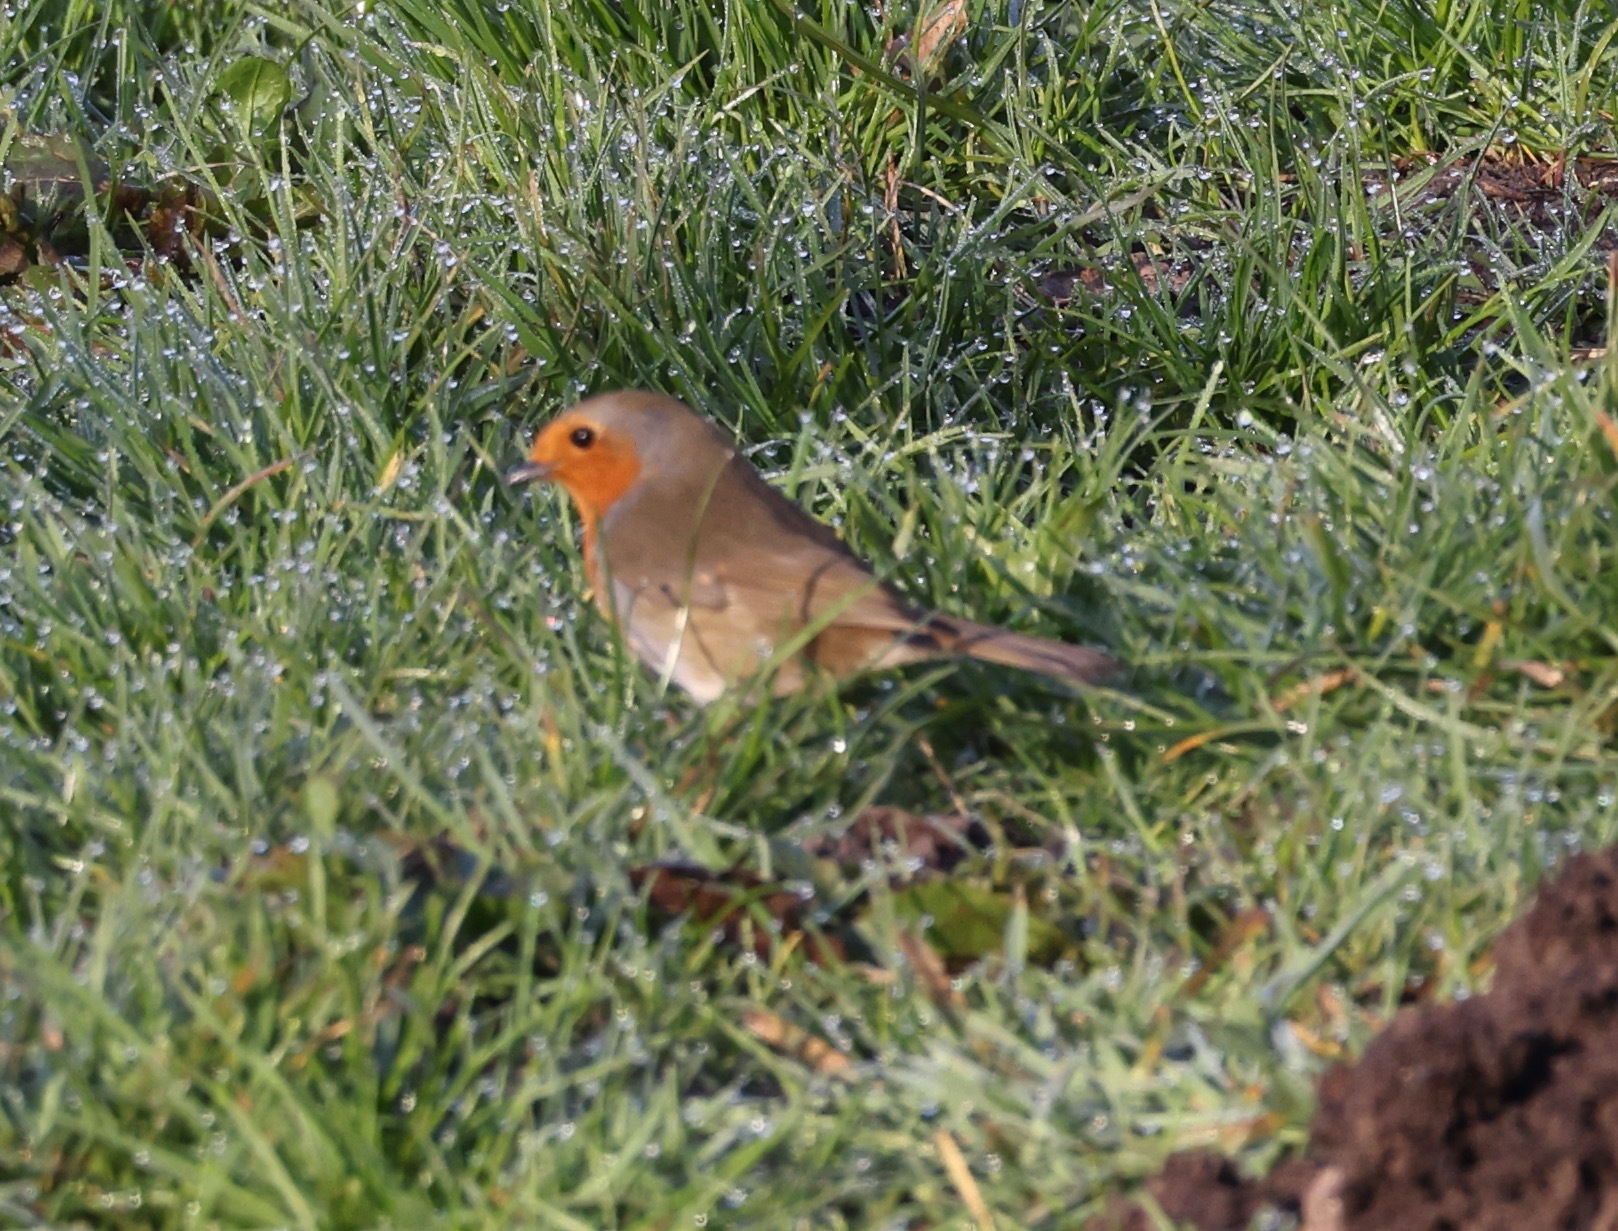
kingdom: Animalia
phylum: Chordata
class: Aves
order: Passeriformes
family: Muscicapidae
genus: Erithacus
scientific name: Erithacus rubecula
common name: European robin
